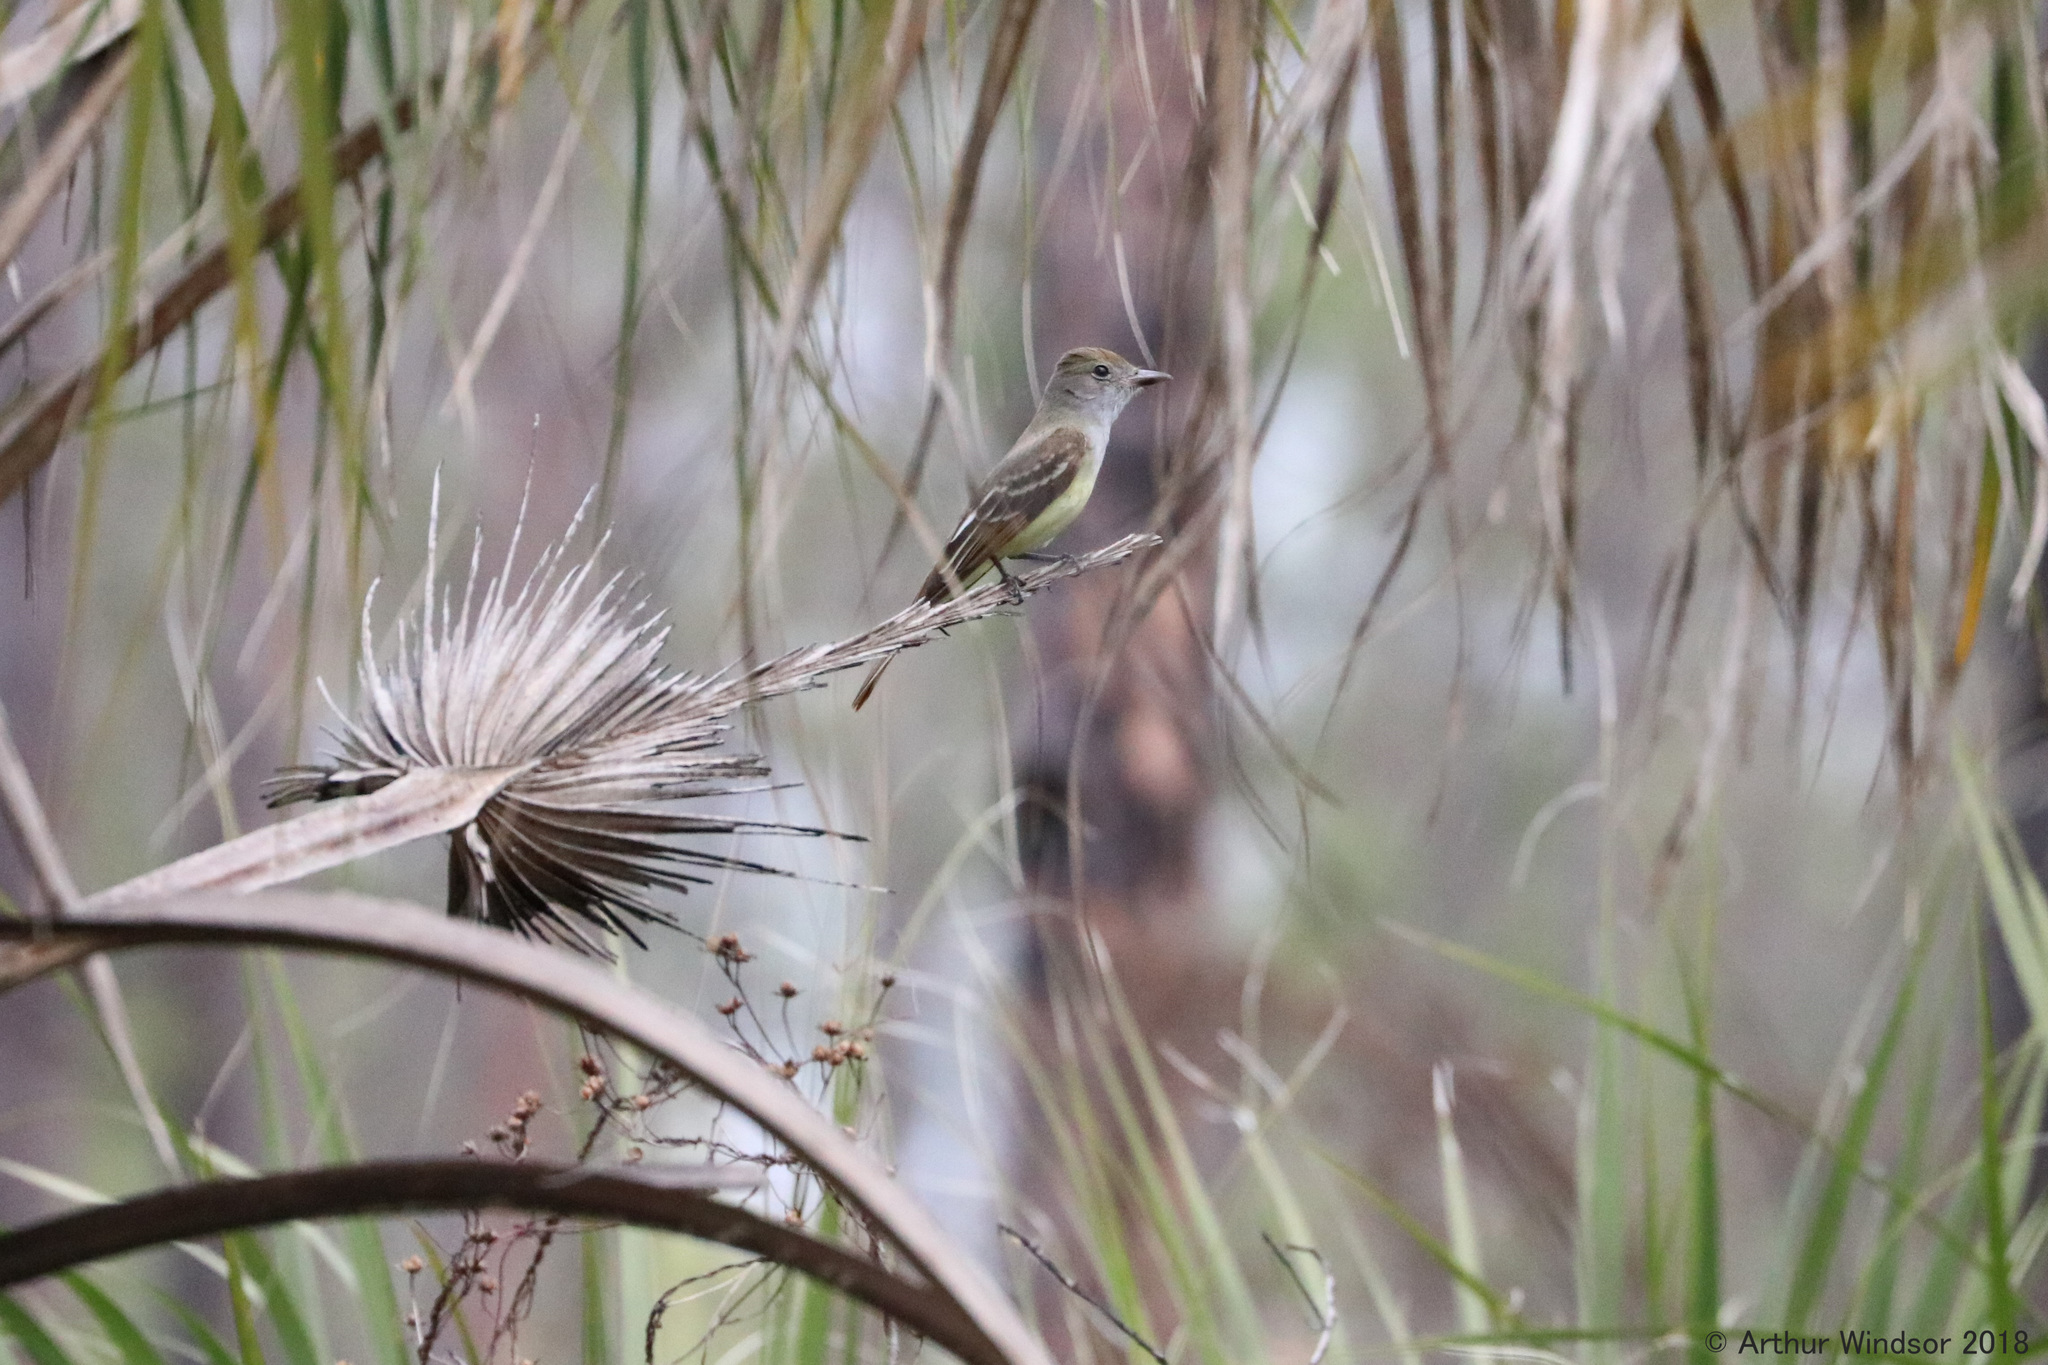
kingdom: Animalia
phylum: Chordata
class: Aves
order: Passeriformes
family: Tyrannidae
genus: Myiarchus
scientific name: Myiarchus crinitus
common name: Great crested flycatcher
